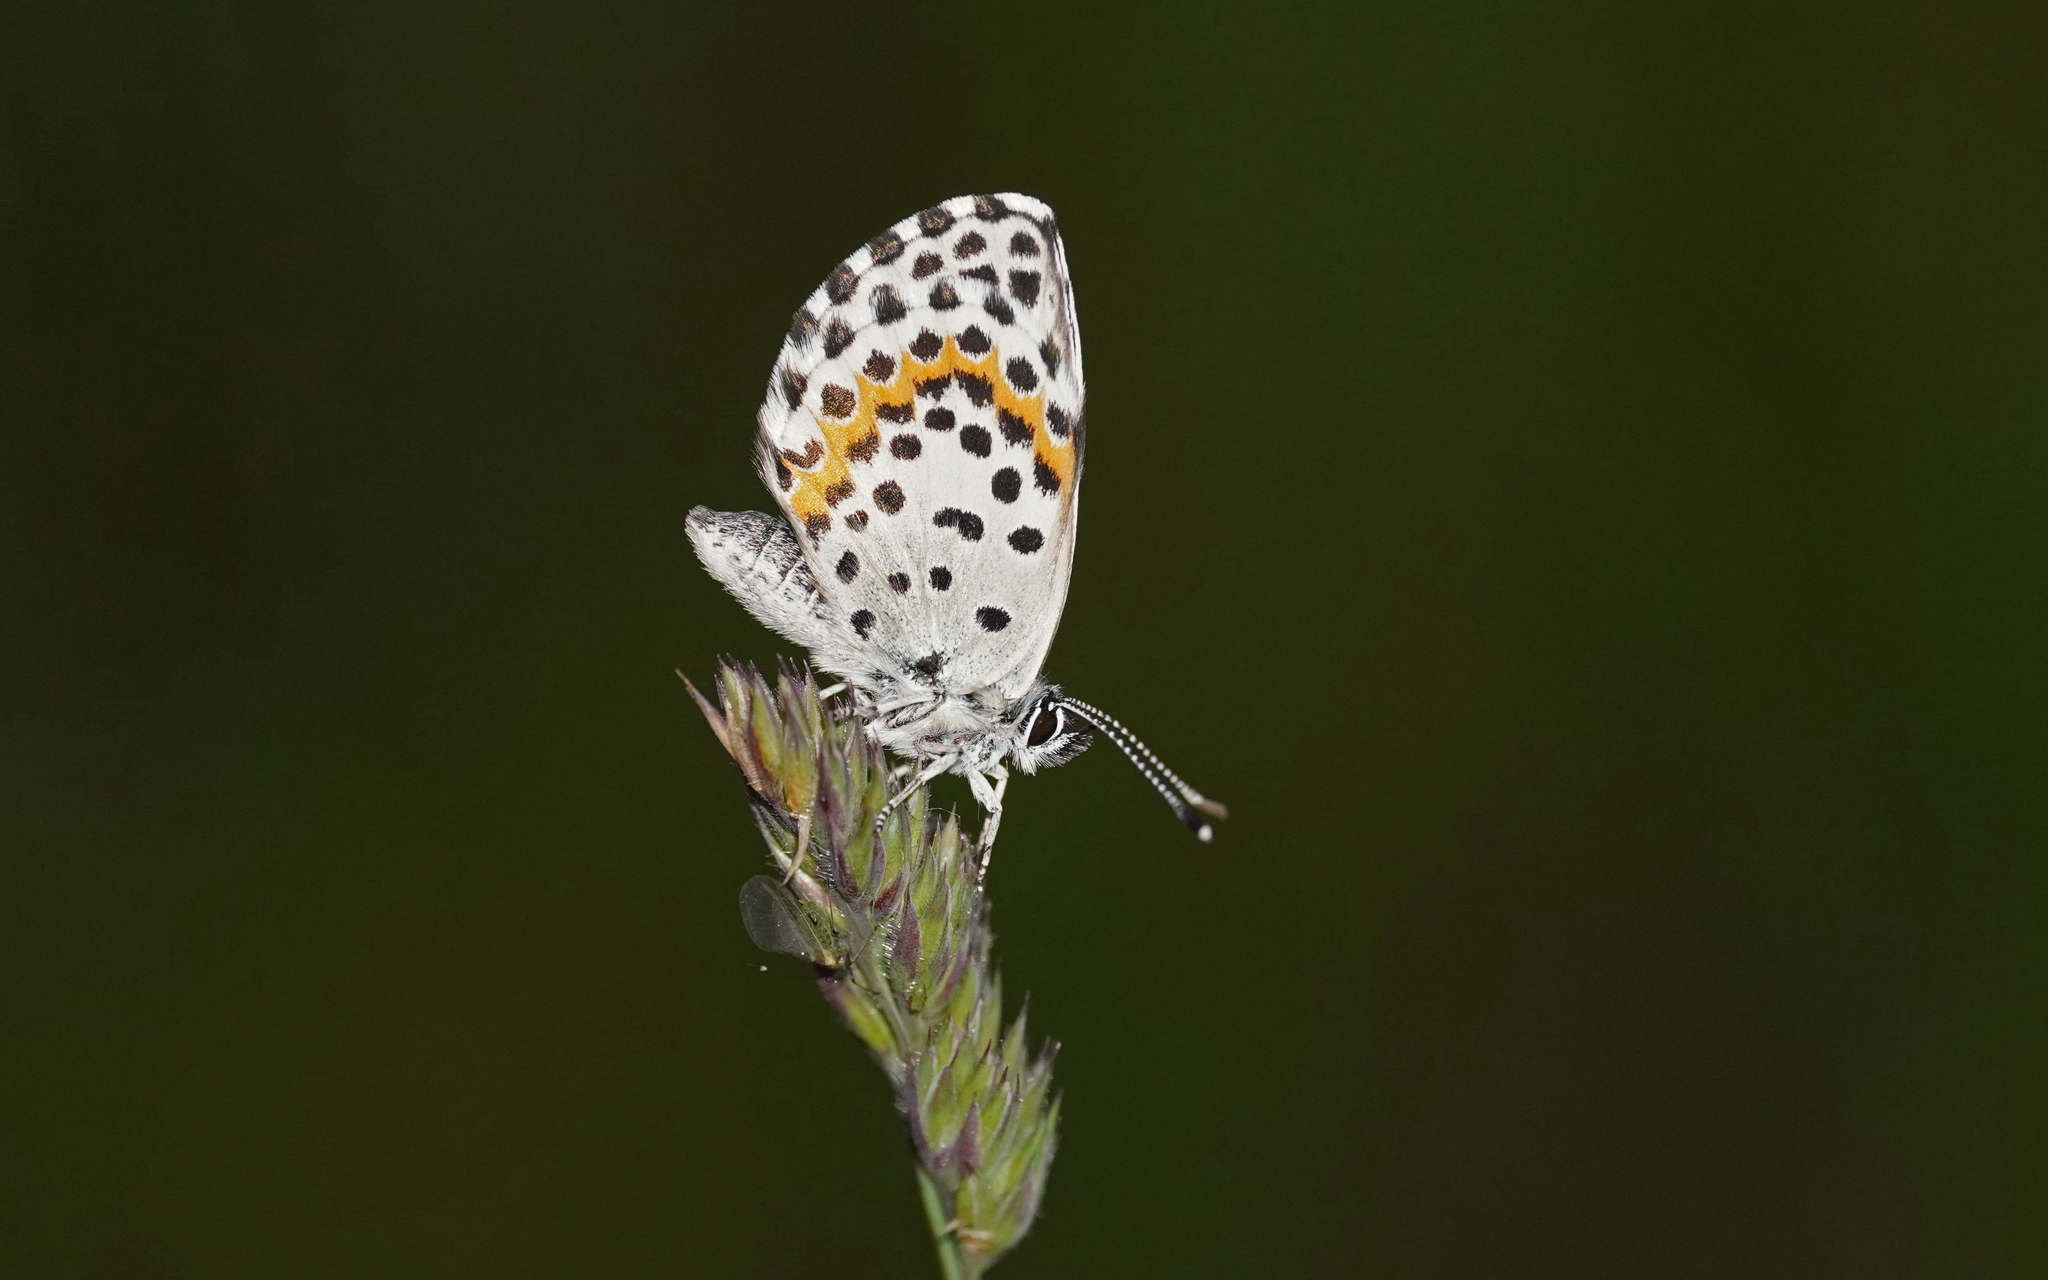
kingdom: Animalia
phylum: Arthropoda
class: Insecta
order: Lepidoptera
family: Lycaenidae
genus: Scolitantides
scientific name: Scolitantides orion
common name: Chequered blue
